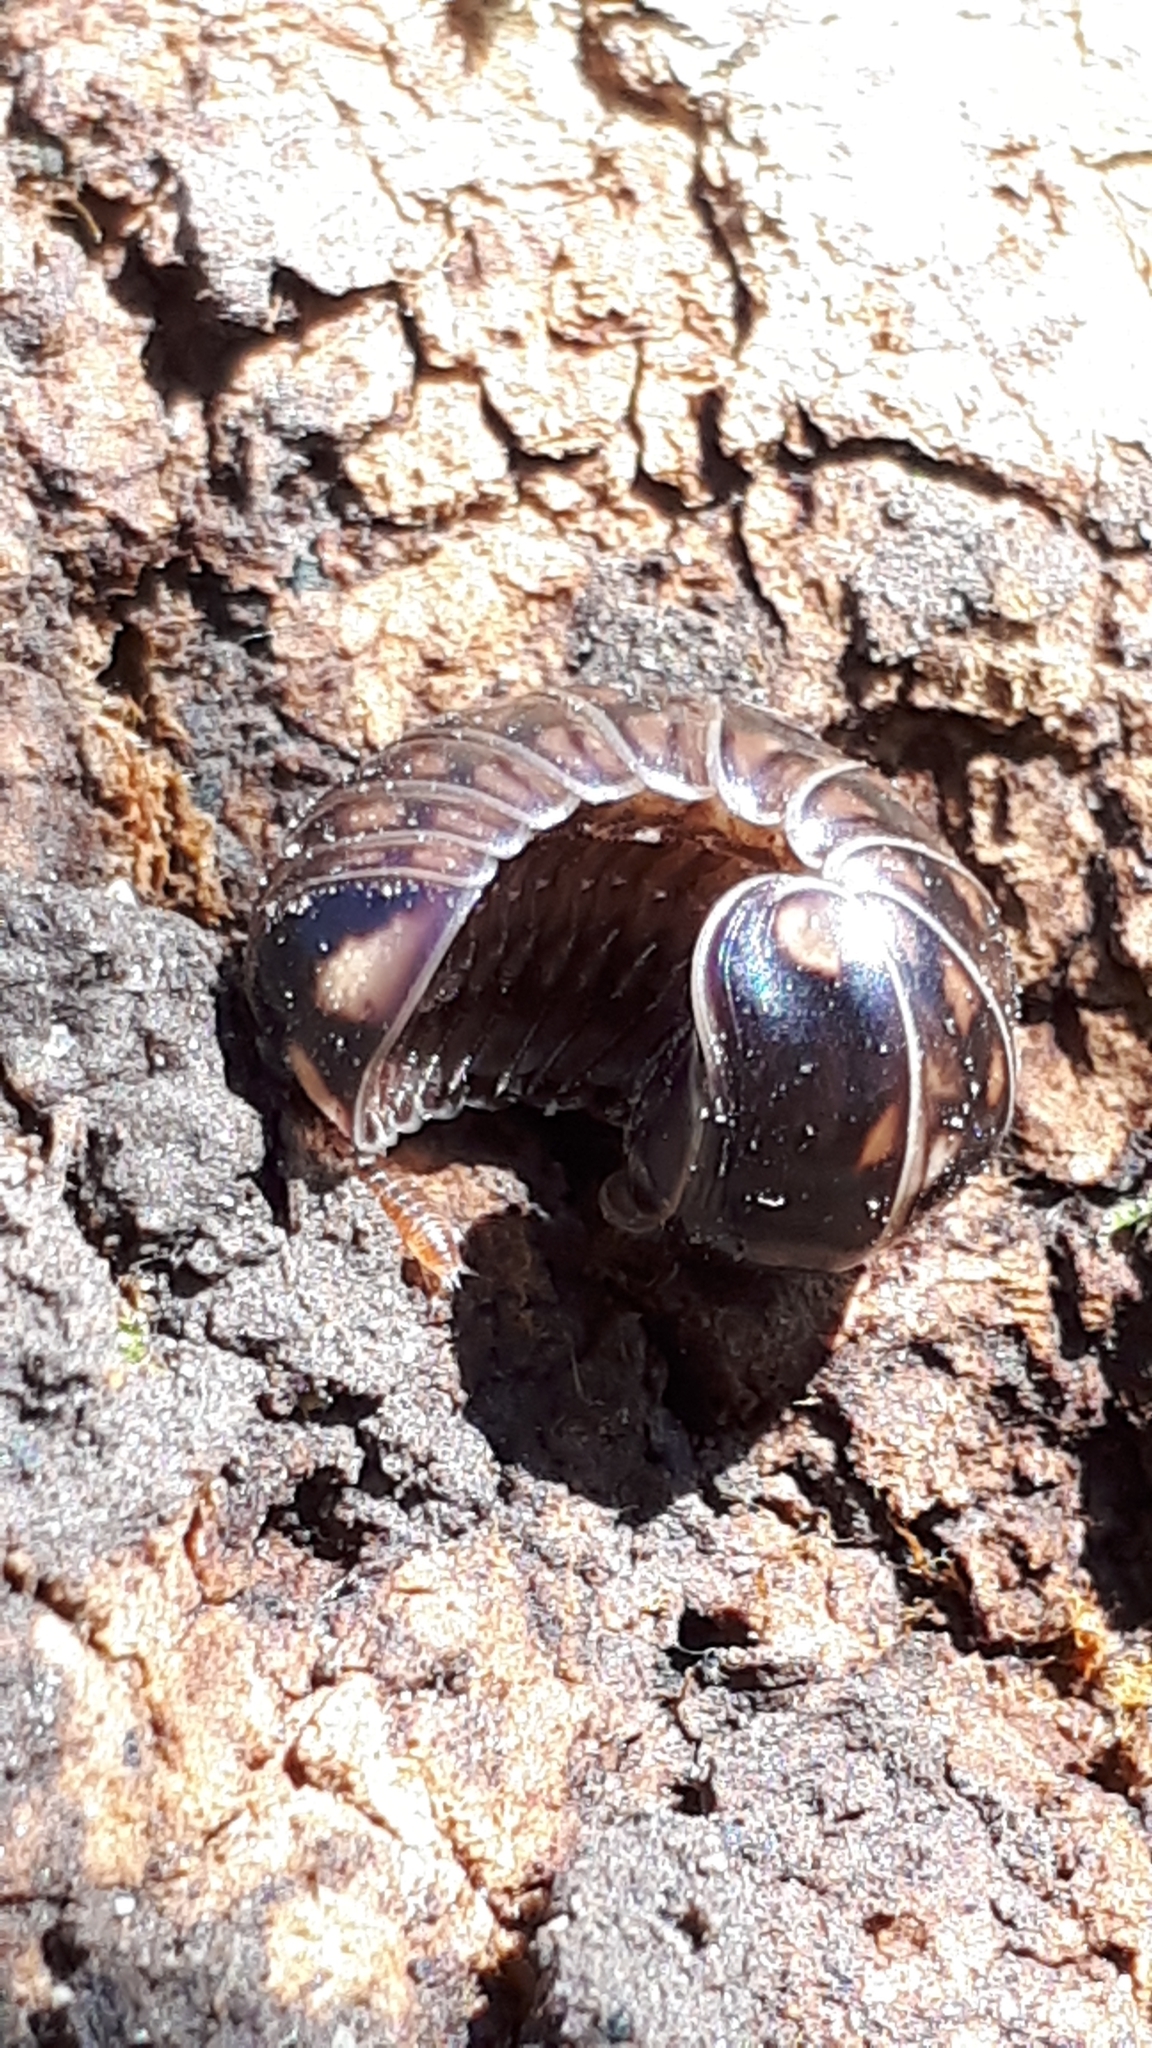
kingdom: Animalia
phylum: Arthropoda
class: Diplopoda
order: Glomerida
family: Glomeridae
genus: Glomeris
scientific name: Glomeris hexasticha
